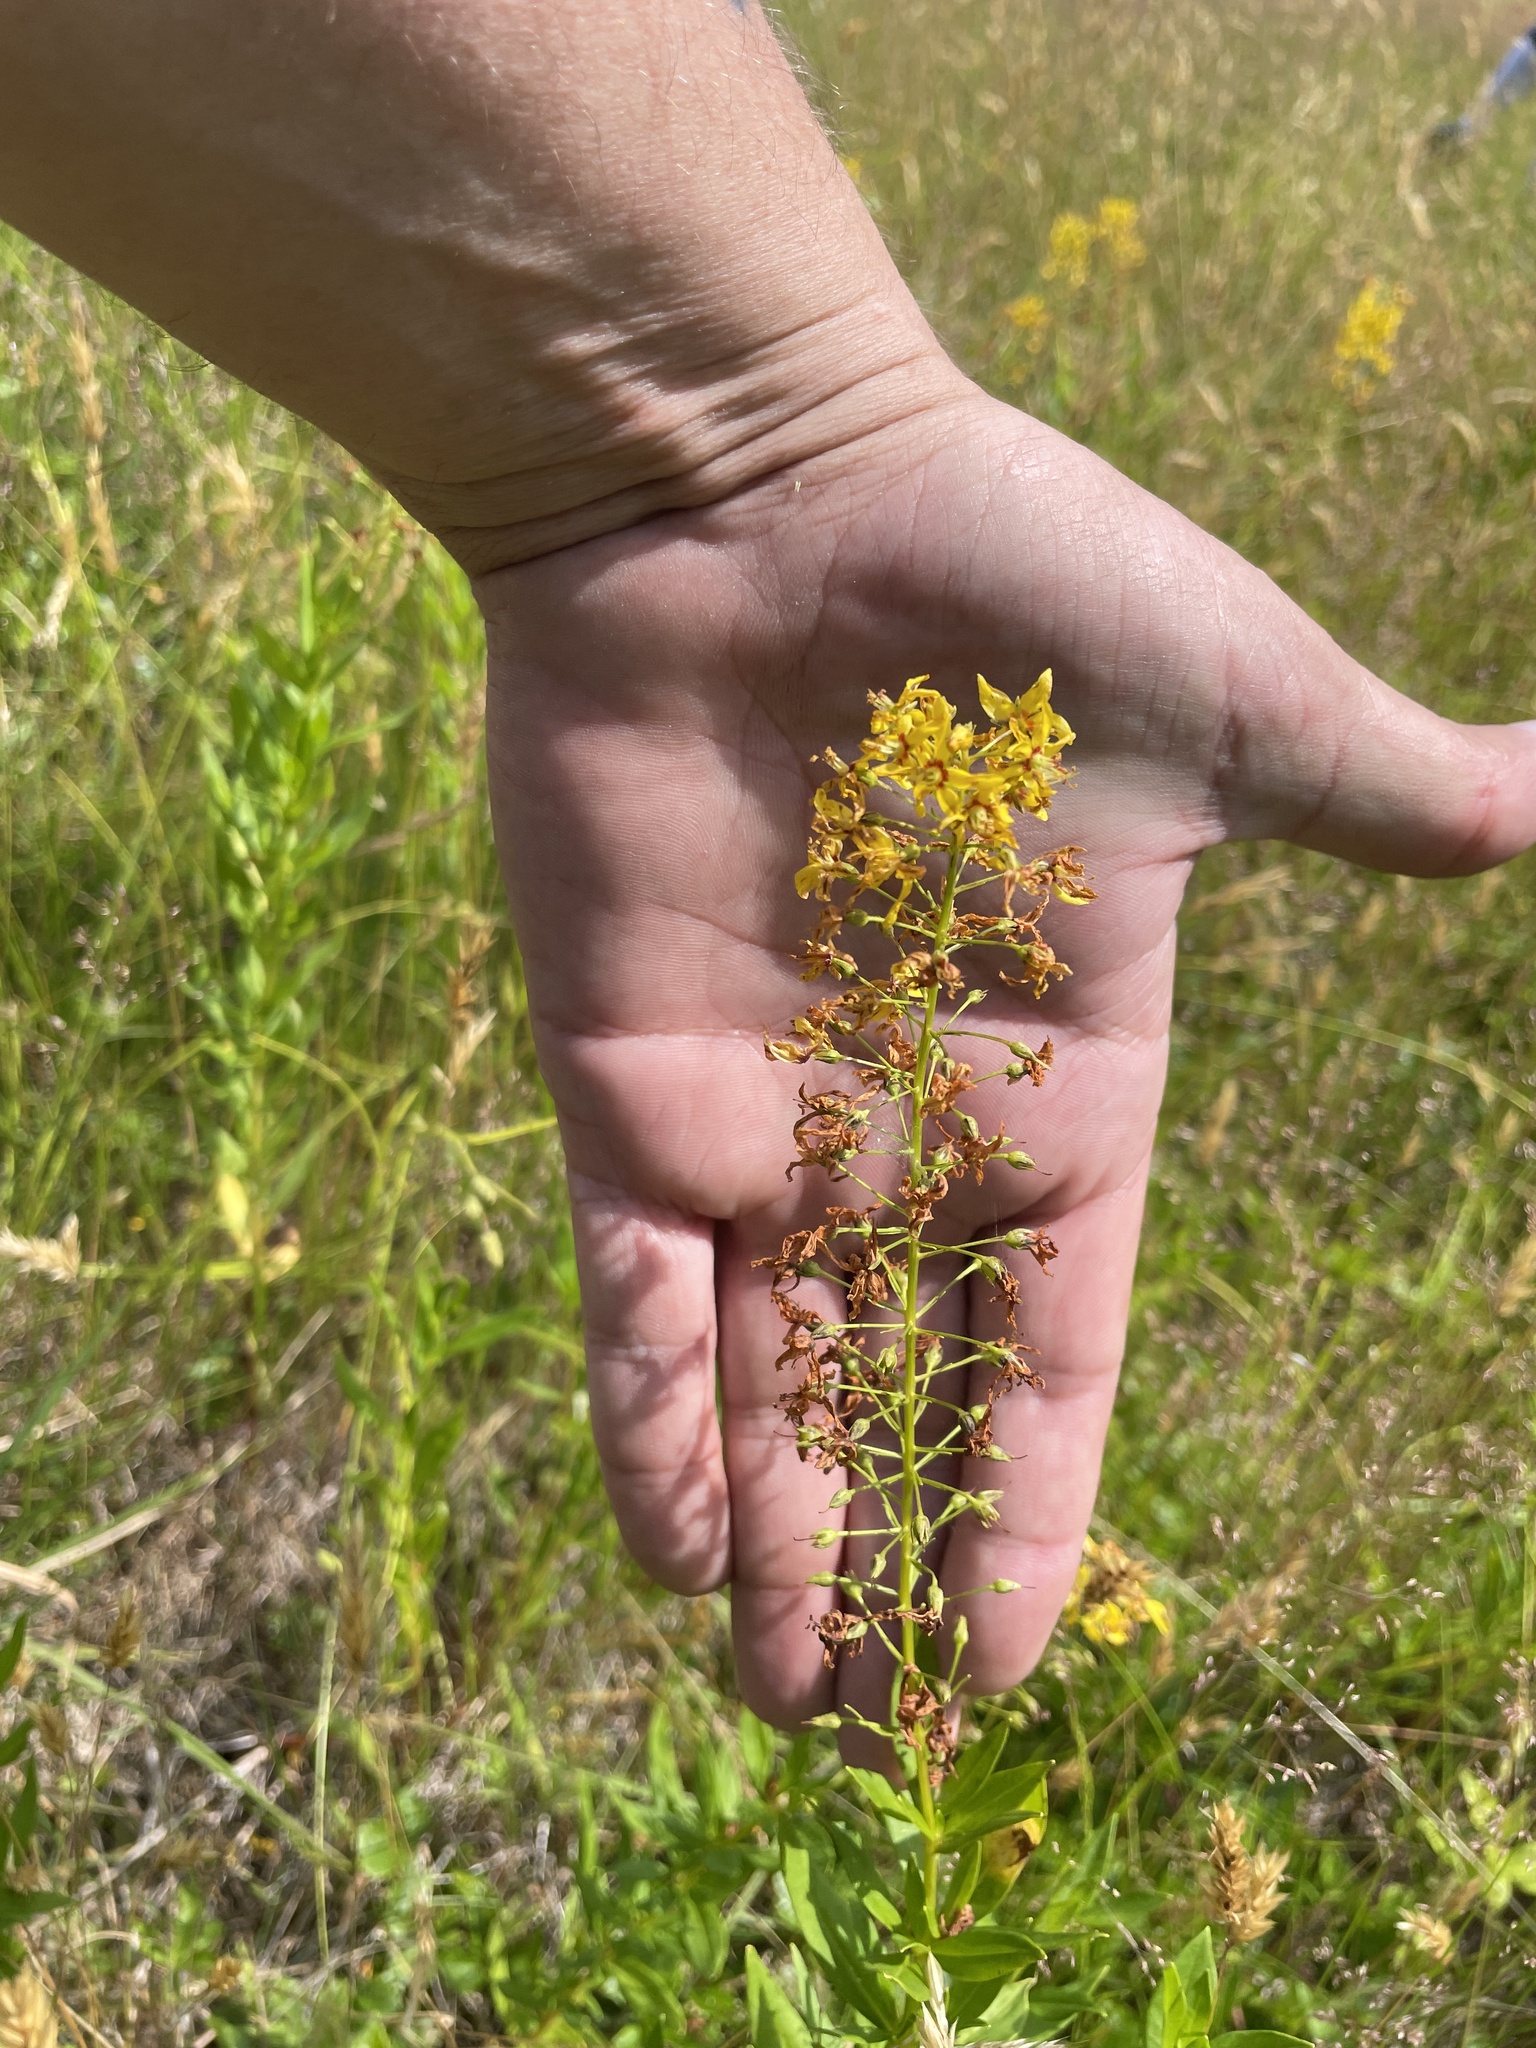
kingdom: Plantae
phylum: Tracheophyta
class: Magnoliopsida
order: Ericales
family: Primulaceae
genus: Lysimachia
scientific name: Lysimachia terrestris
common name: Lake loosestrife
